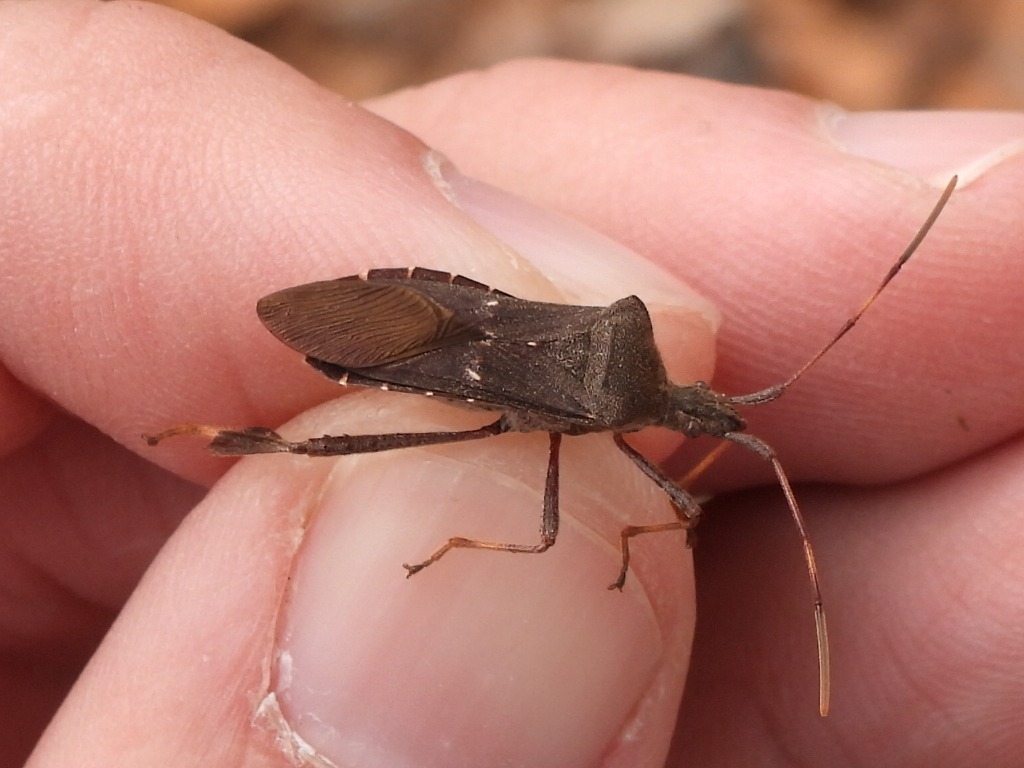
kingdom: Animalia
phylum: Arthropoda
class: Insecta
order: Hemiptera
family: Coreidae
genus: Leptoglossus
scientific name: Leptoglossus oppositus
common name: Northern leaf-footed bug
